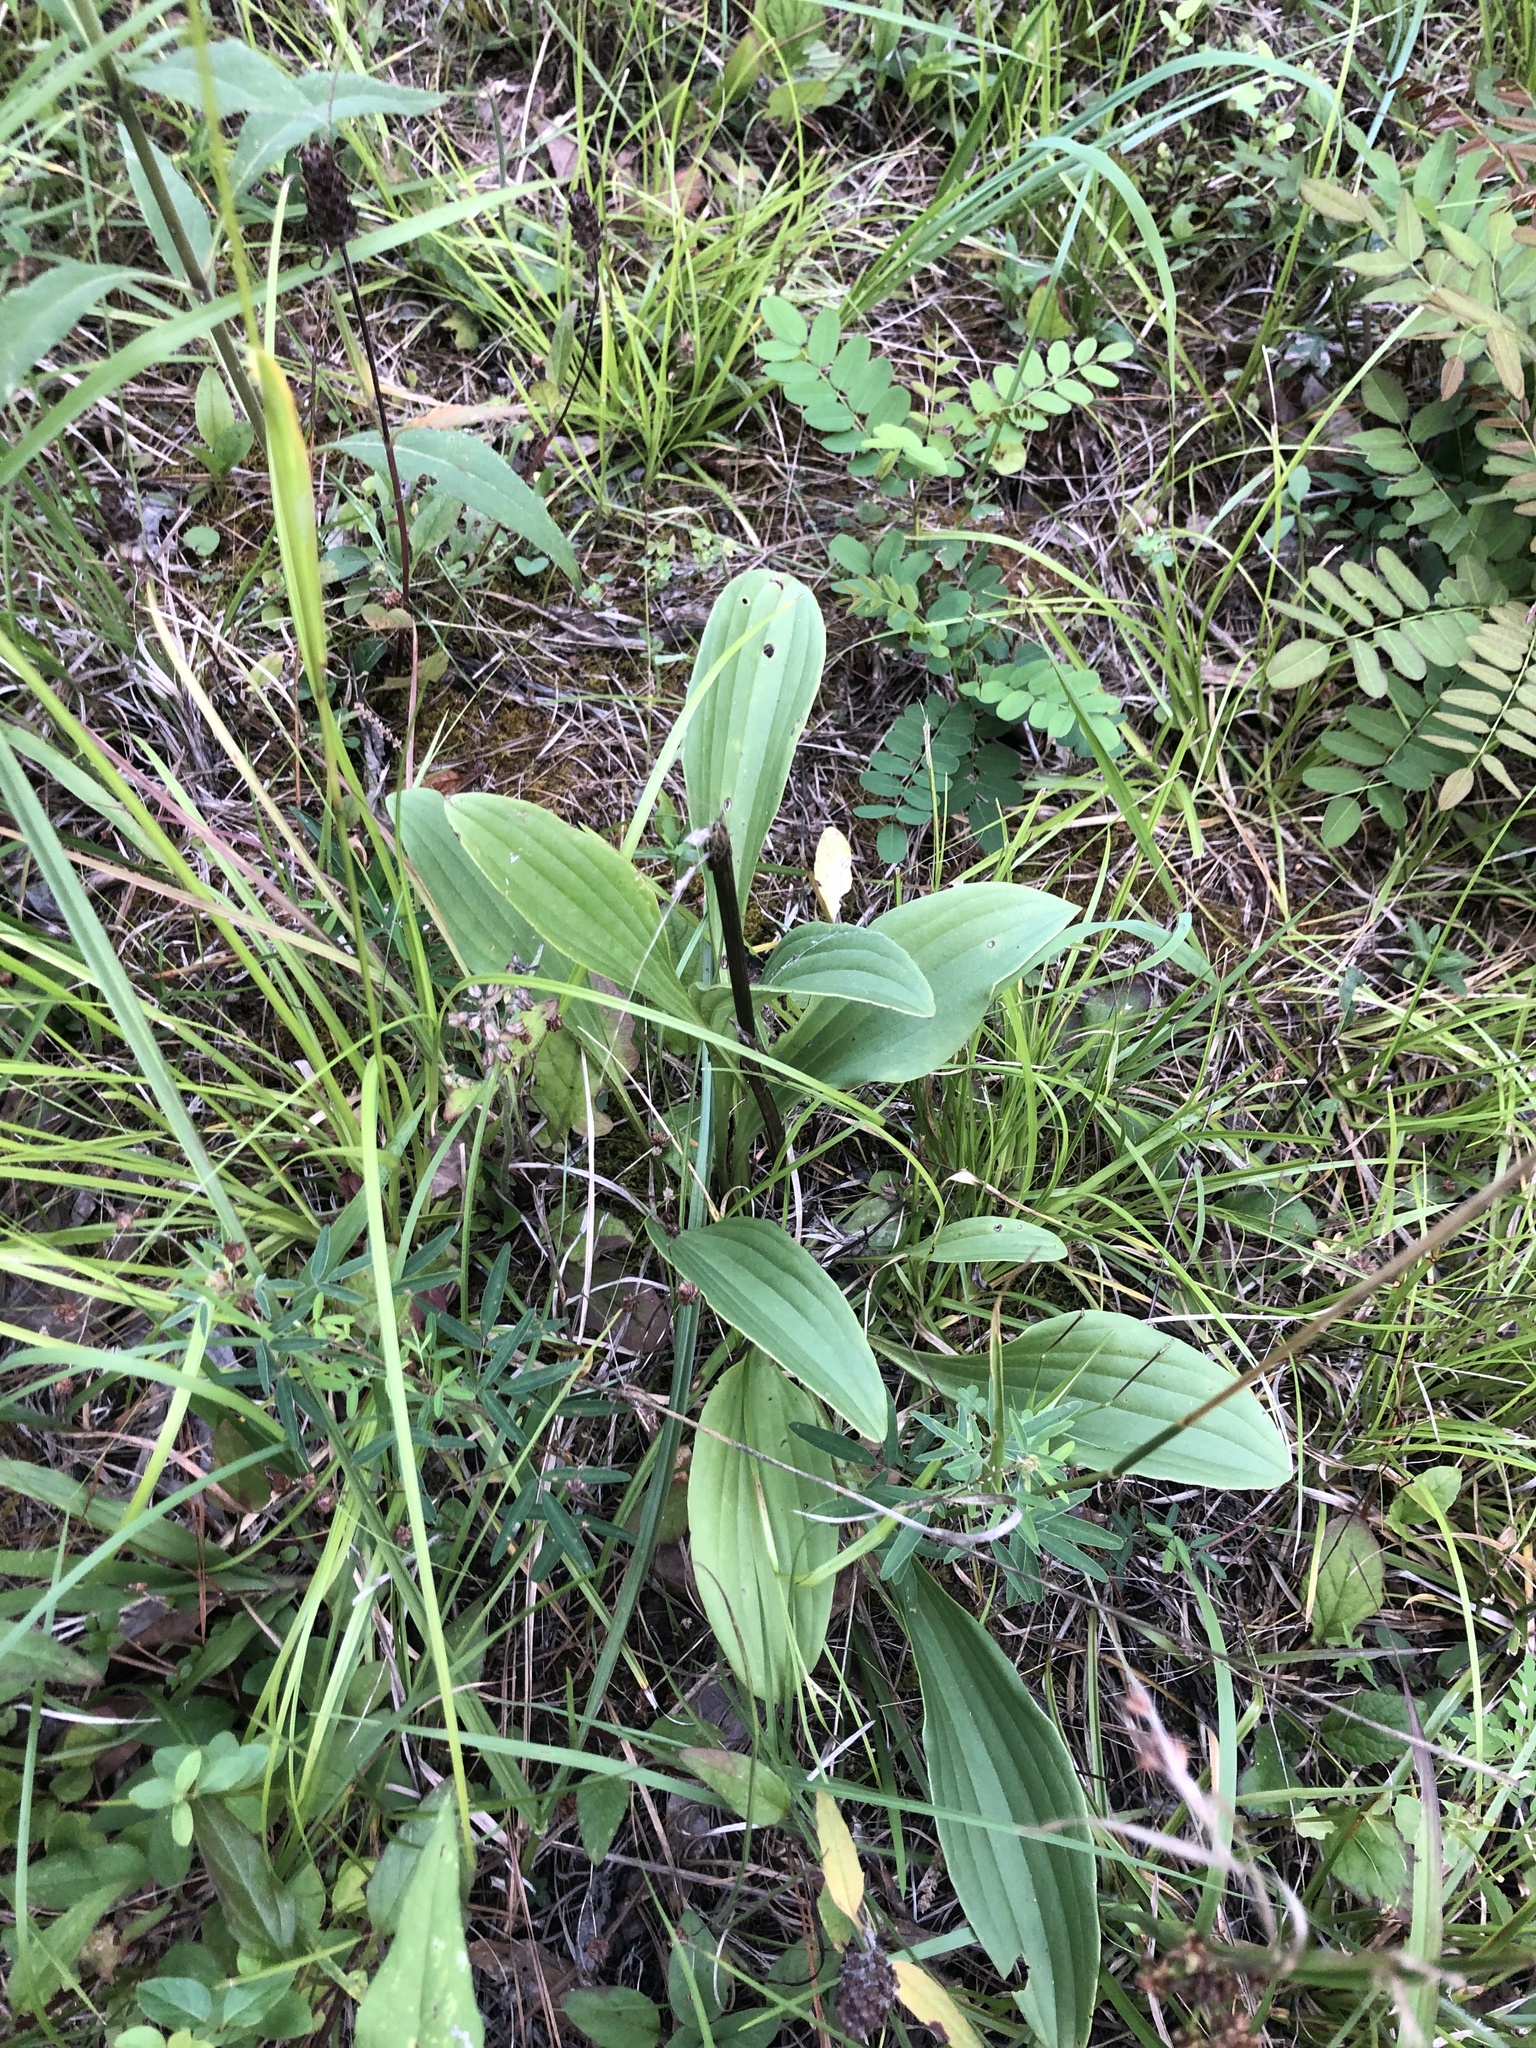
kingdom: Plantae
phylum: Tracheophyta
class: Magnoliopsida
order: Asterales
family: Asteraceae
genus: Arnoglossum
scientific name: Arnoglossum plantagineum
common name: Groove-stemmed indian-plantain
